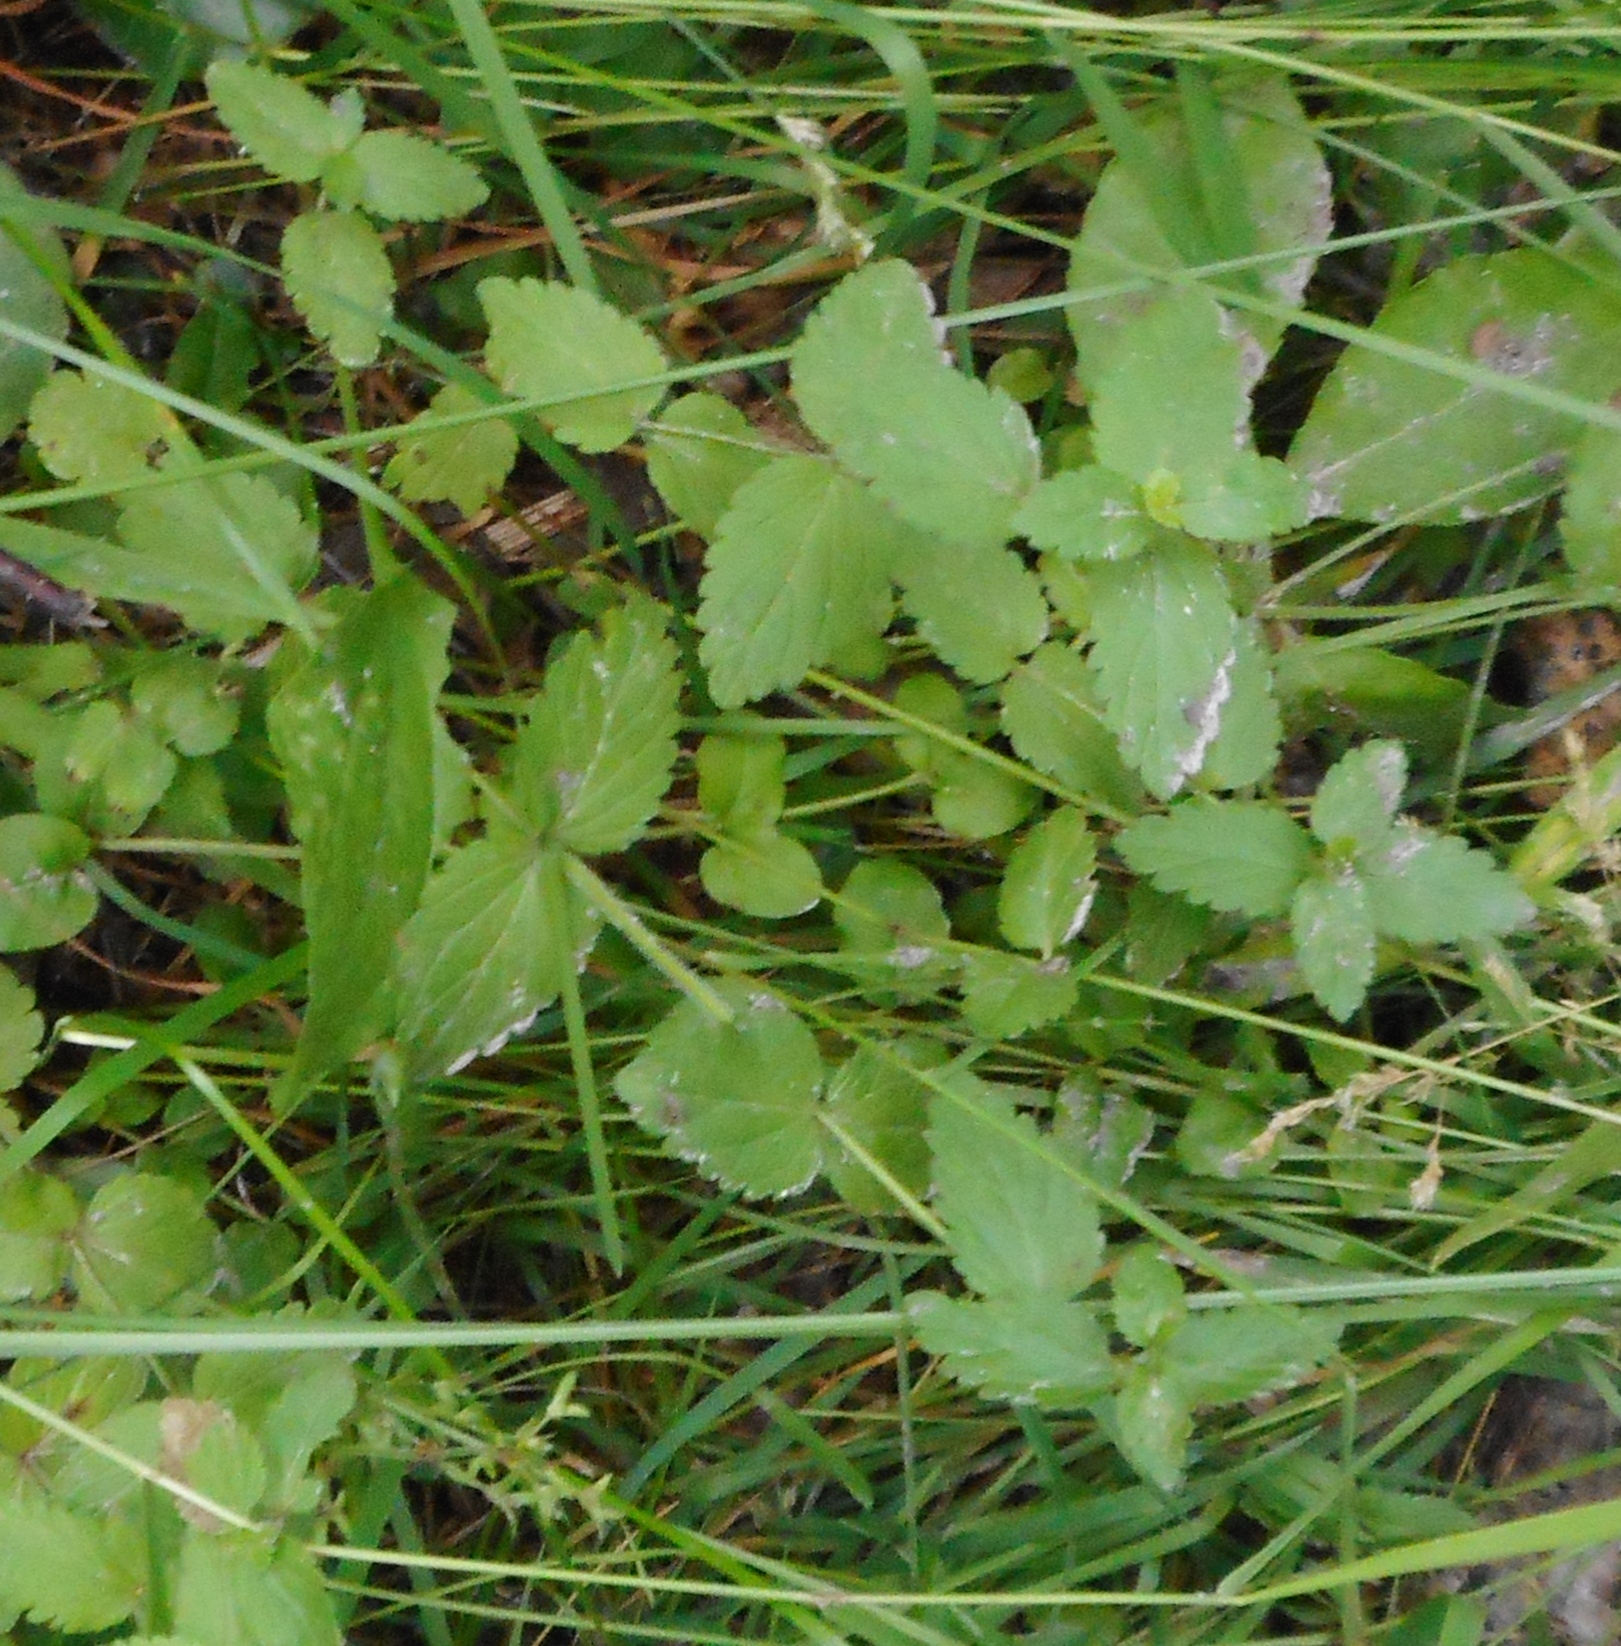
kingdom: Plantae
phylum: Tracheophyta
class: Magnoliopsida
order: Lamiales
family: Plantaginaceae
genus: Veronica
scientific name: Veronica chamaedrys
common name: Germander speedwell
